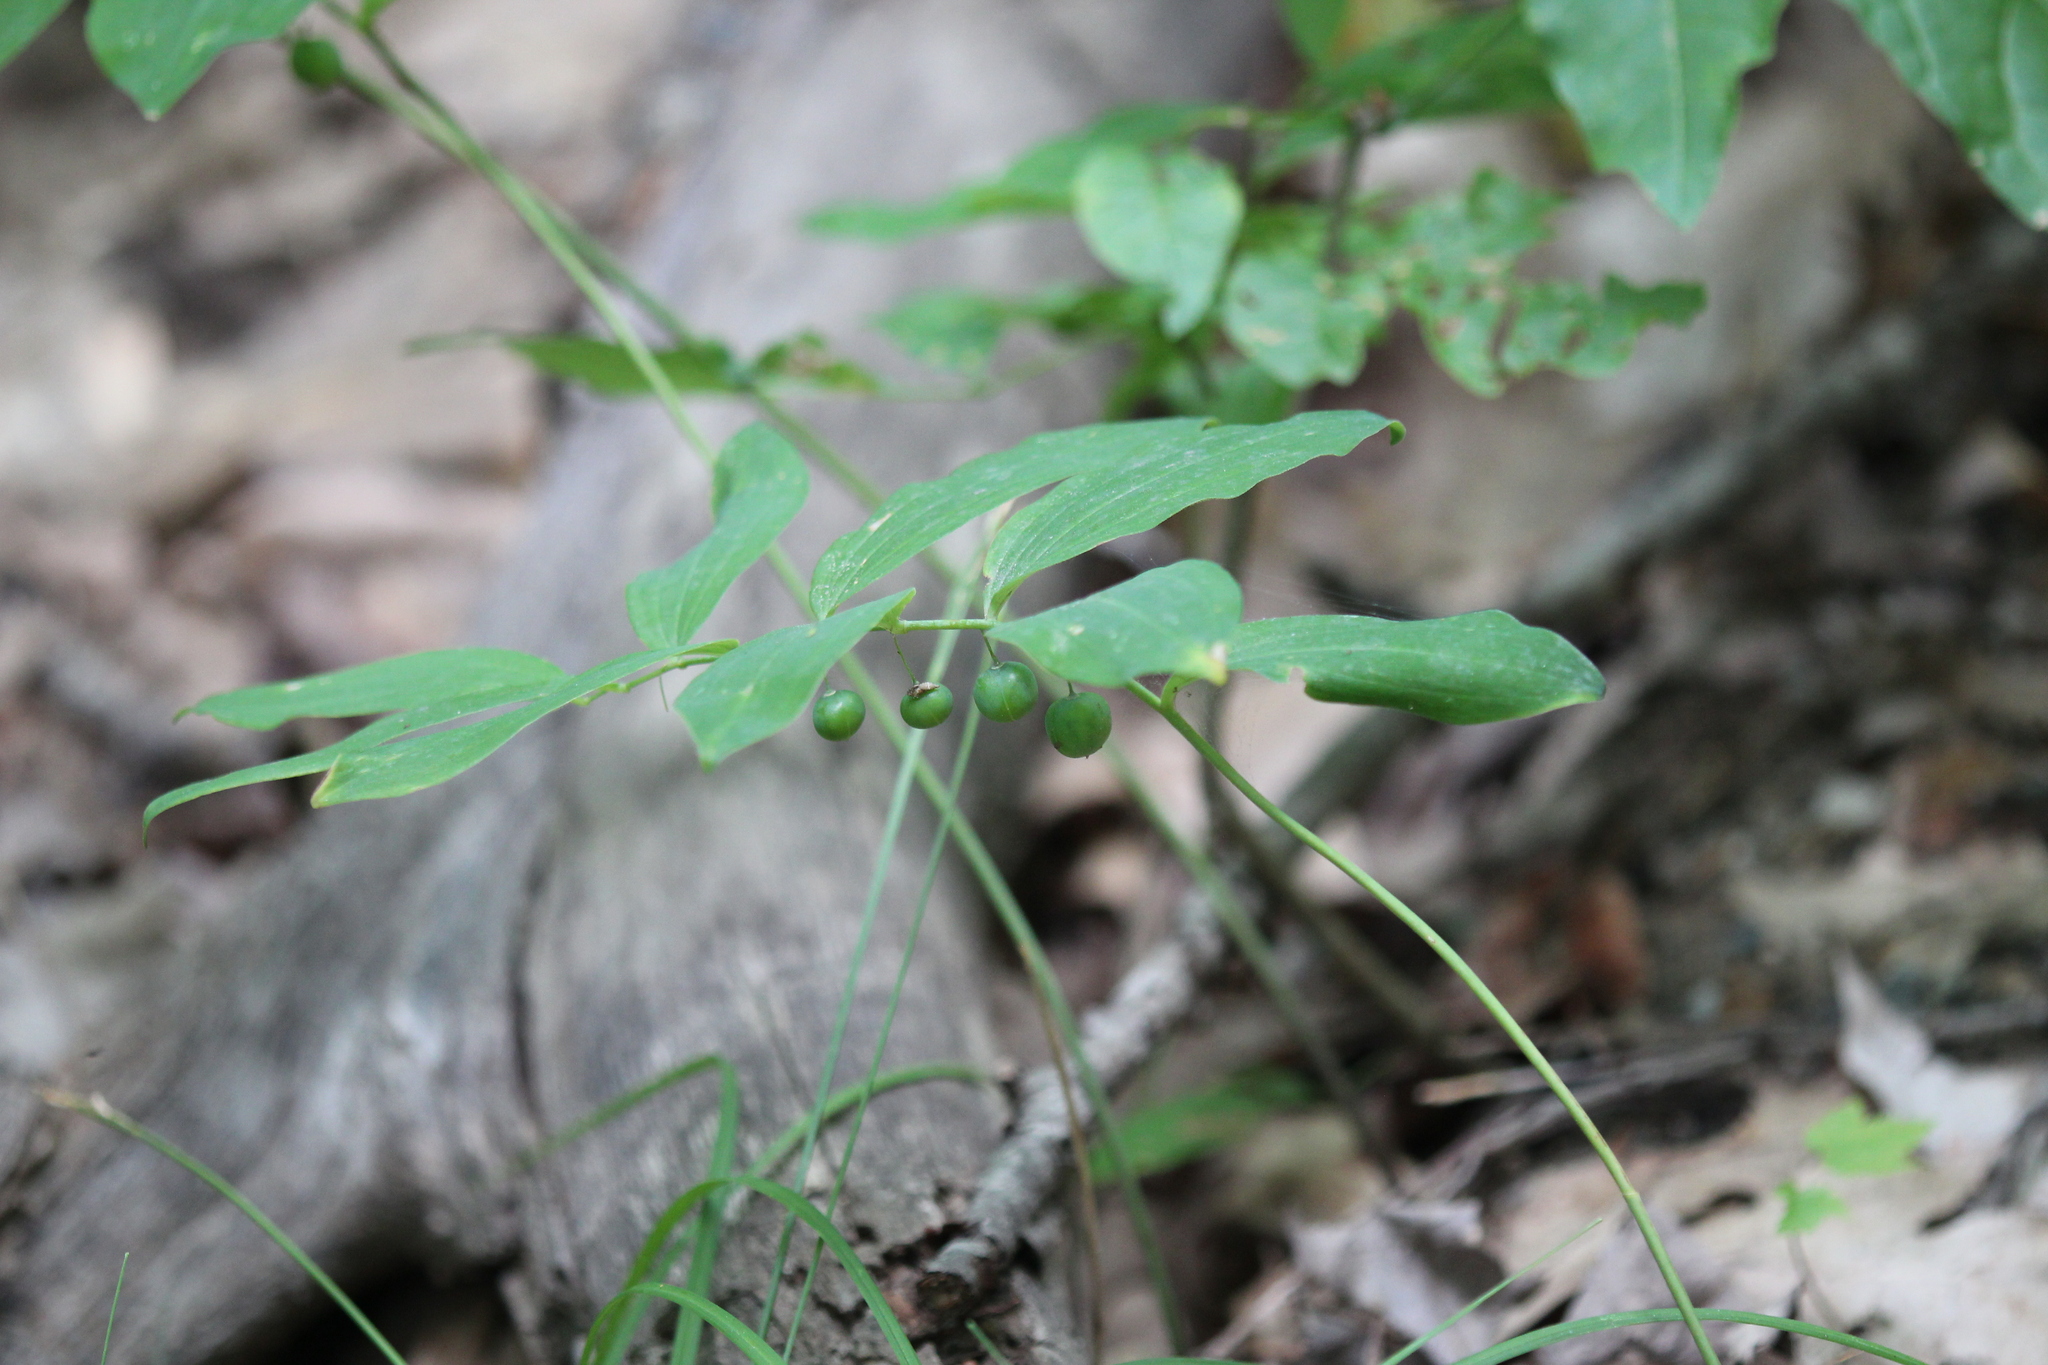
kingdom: Plantae
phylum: Tracheophyta
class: Liliopsida
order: Asparagales
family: Asparagaceae
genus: Polygonatum
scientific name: Polygonatum pubescens
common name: Downy solomon's seal
